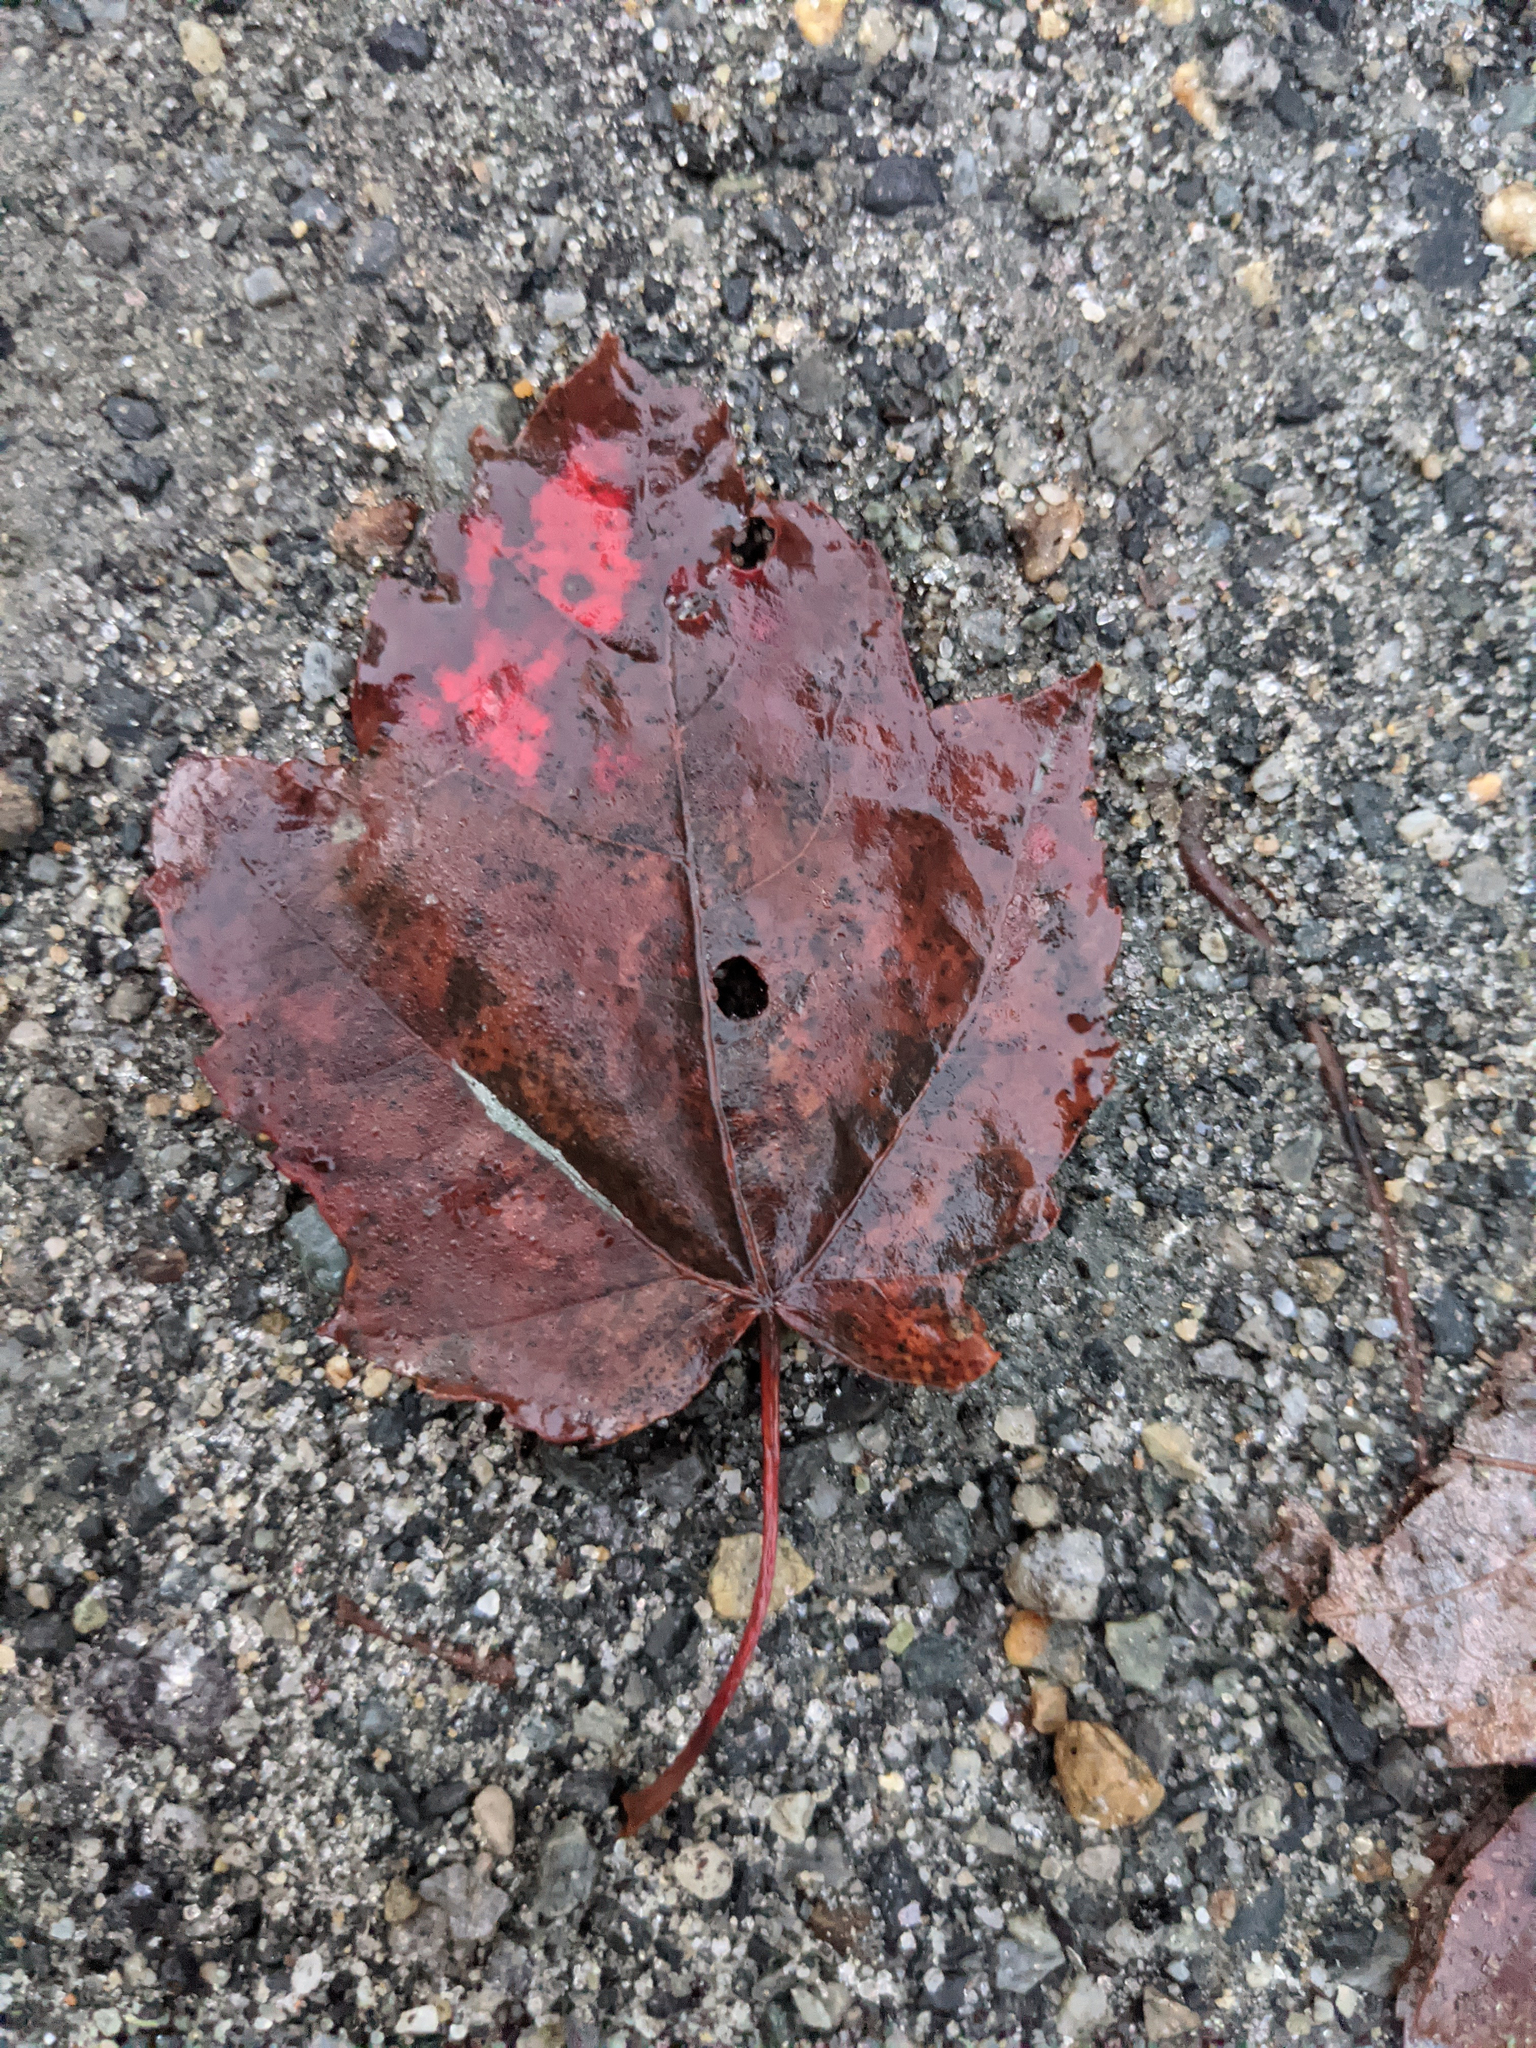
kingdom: Plantae
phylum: Tracheophyta
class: Magnoliopsida
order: Sapindales
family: Sapindaceae
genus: Acer
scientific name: Acer rubrum
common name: Red maple
